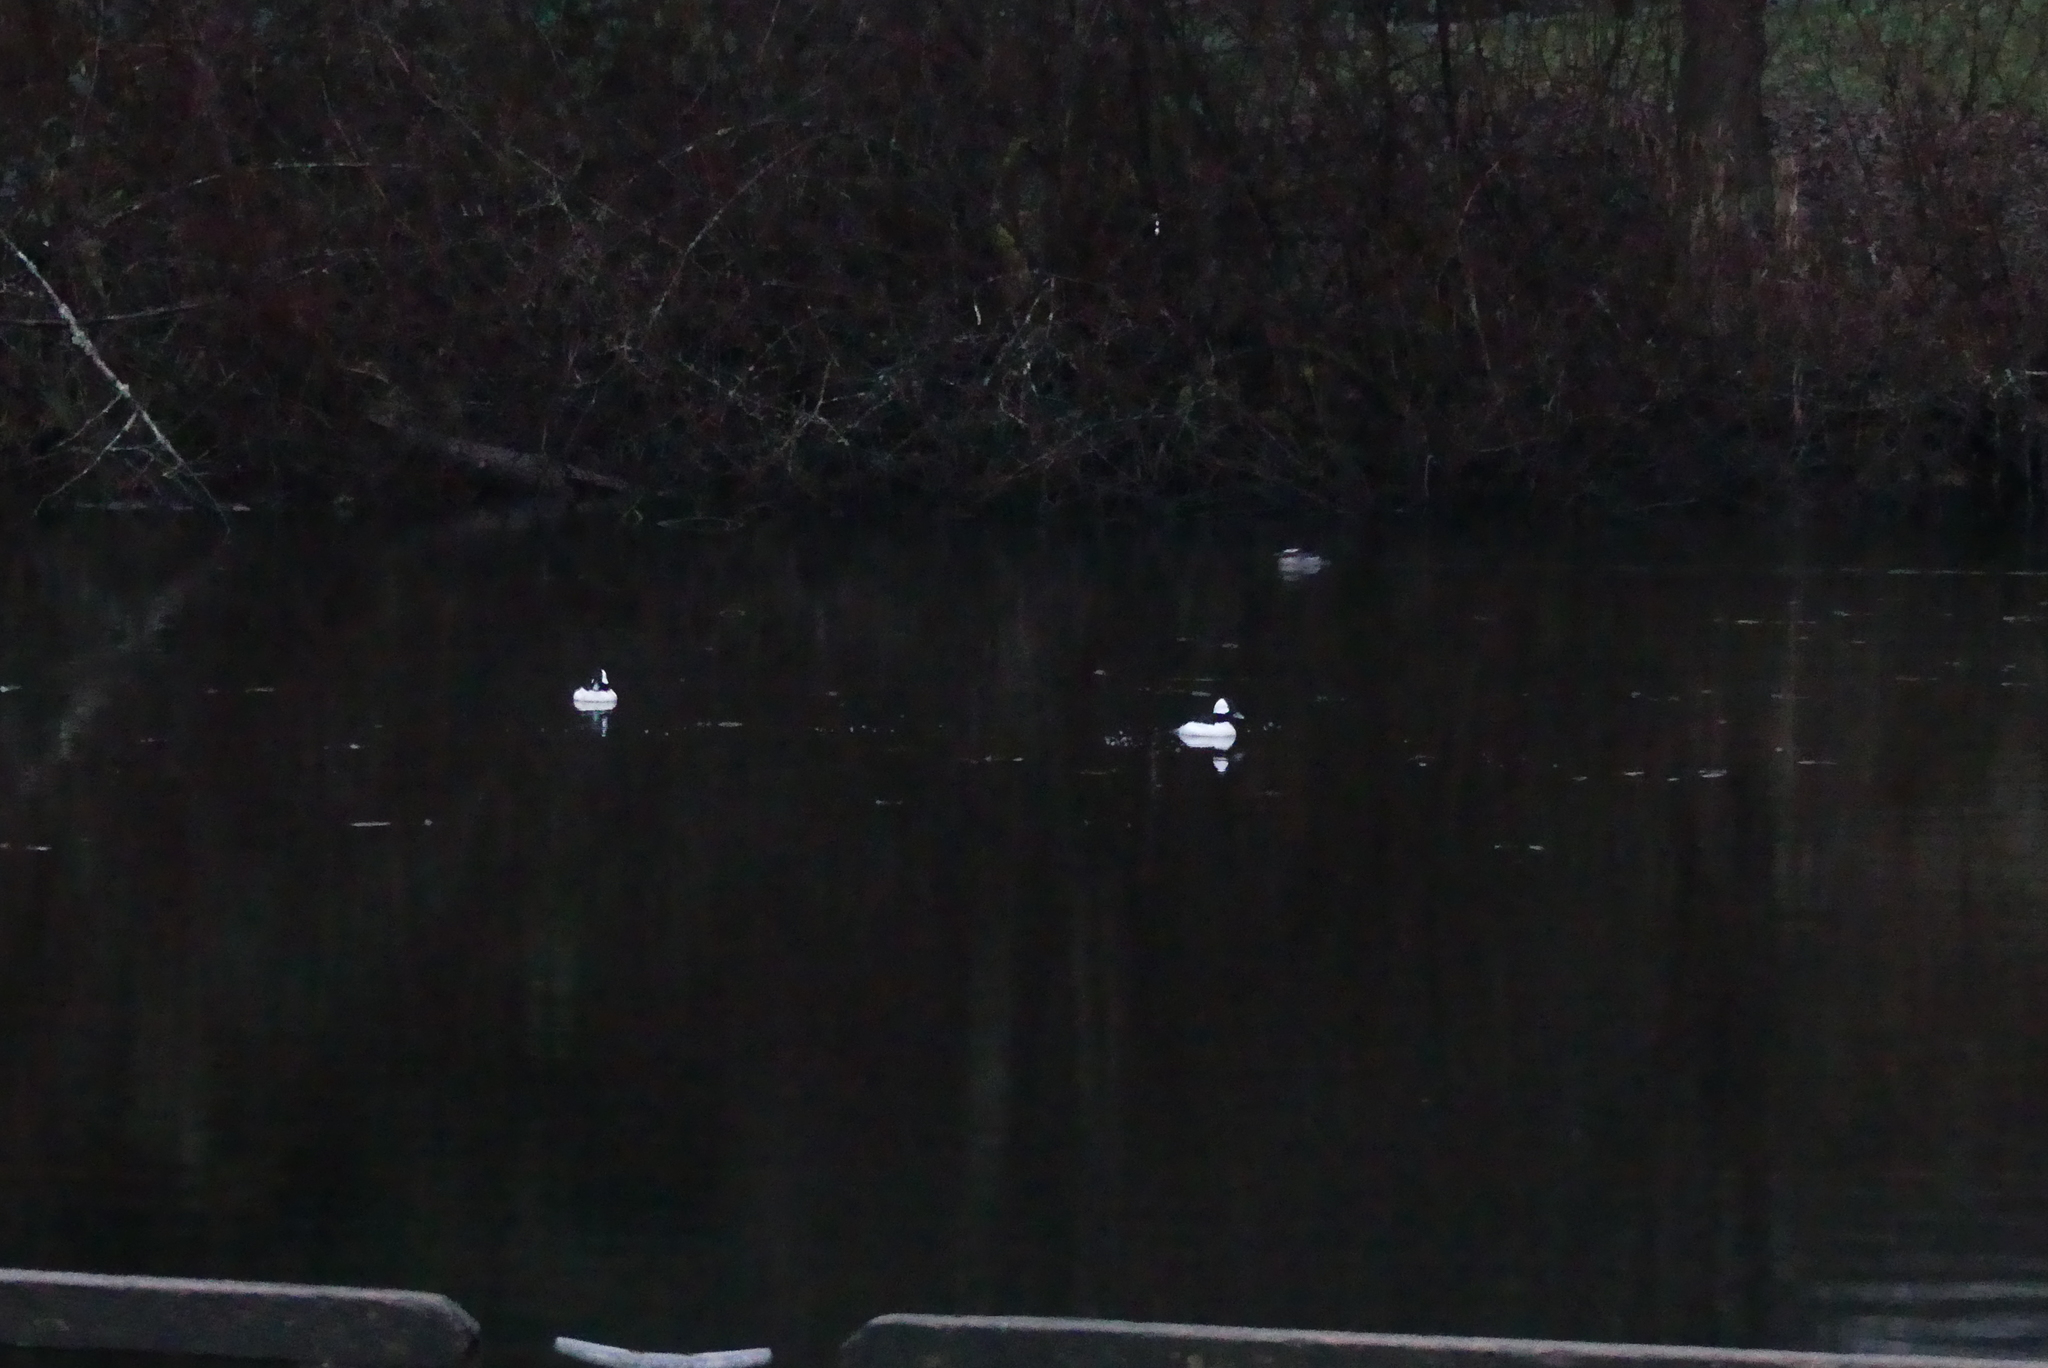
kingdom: Animalia
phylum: Chordata
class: Aves
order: Anseriformes
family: Anatidae
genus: Bucephala
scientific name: Bucephala albeola
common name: Bufflehead
